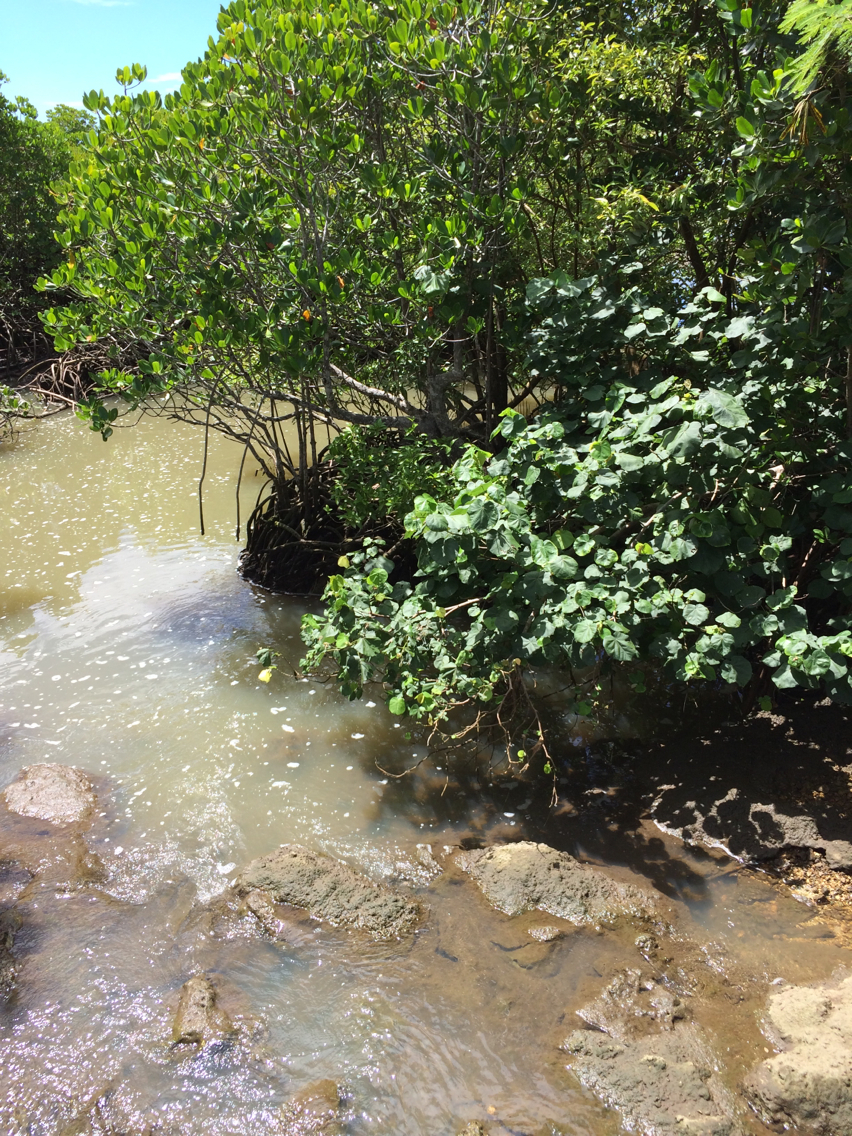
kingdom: Plantae
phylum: Tracheophyta
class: Magnoliopsida
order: Malvales
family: Malvaceae
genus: Talipariti
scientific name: Talipariti tiliaceum
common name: Sea hibiscus
